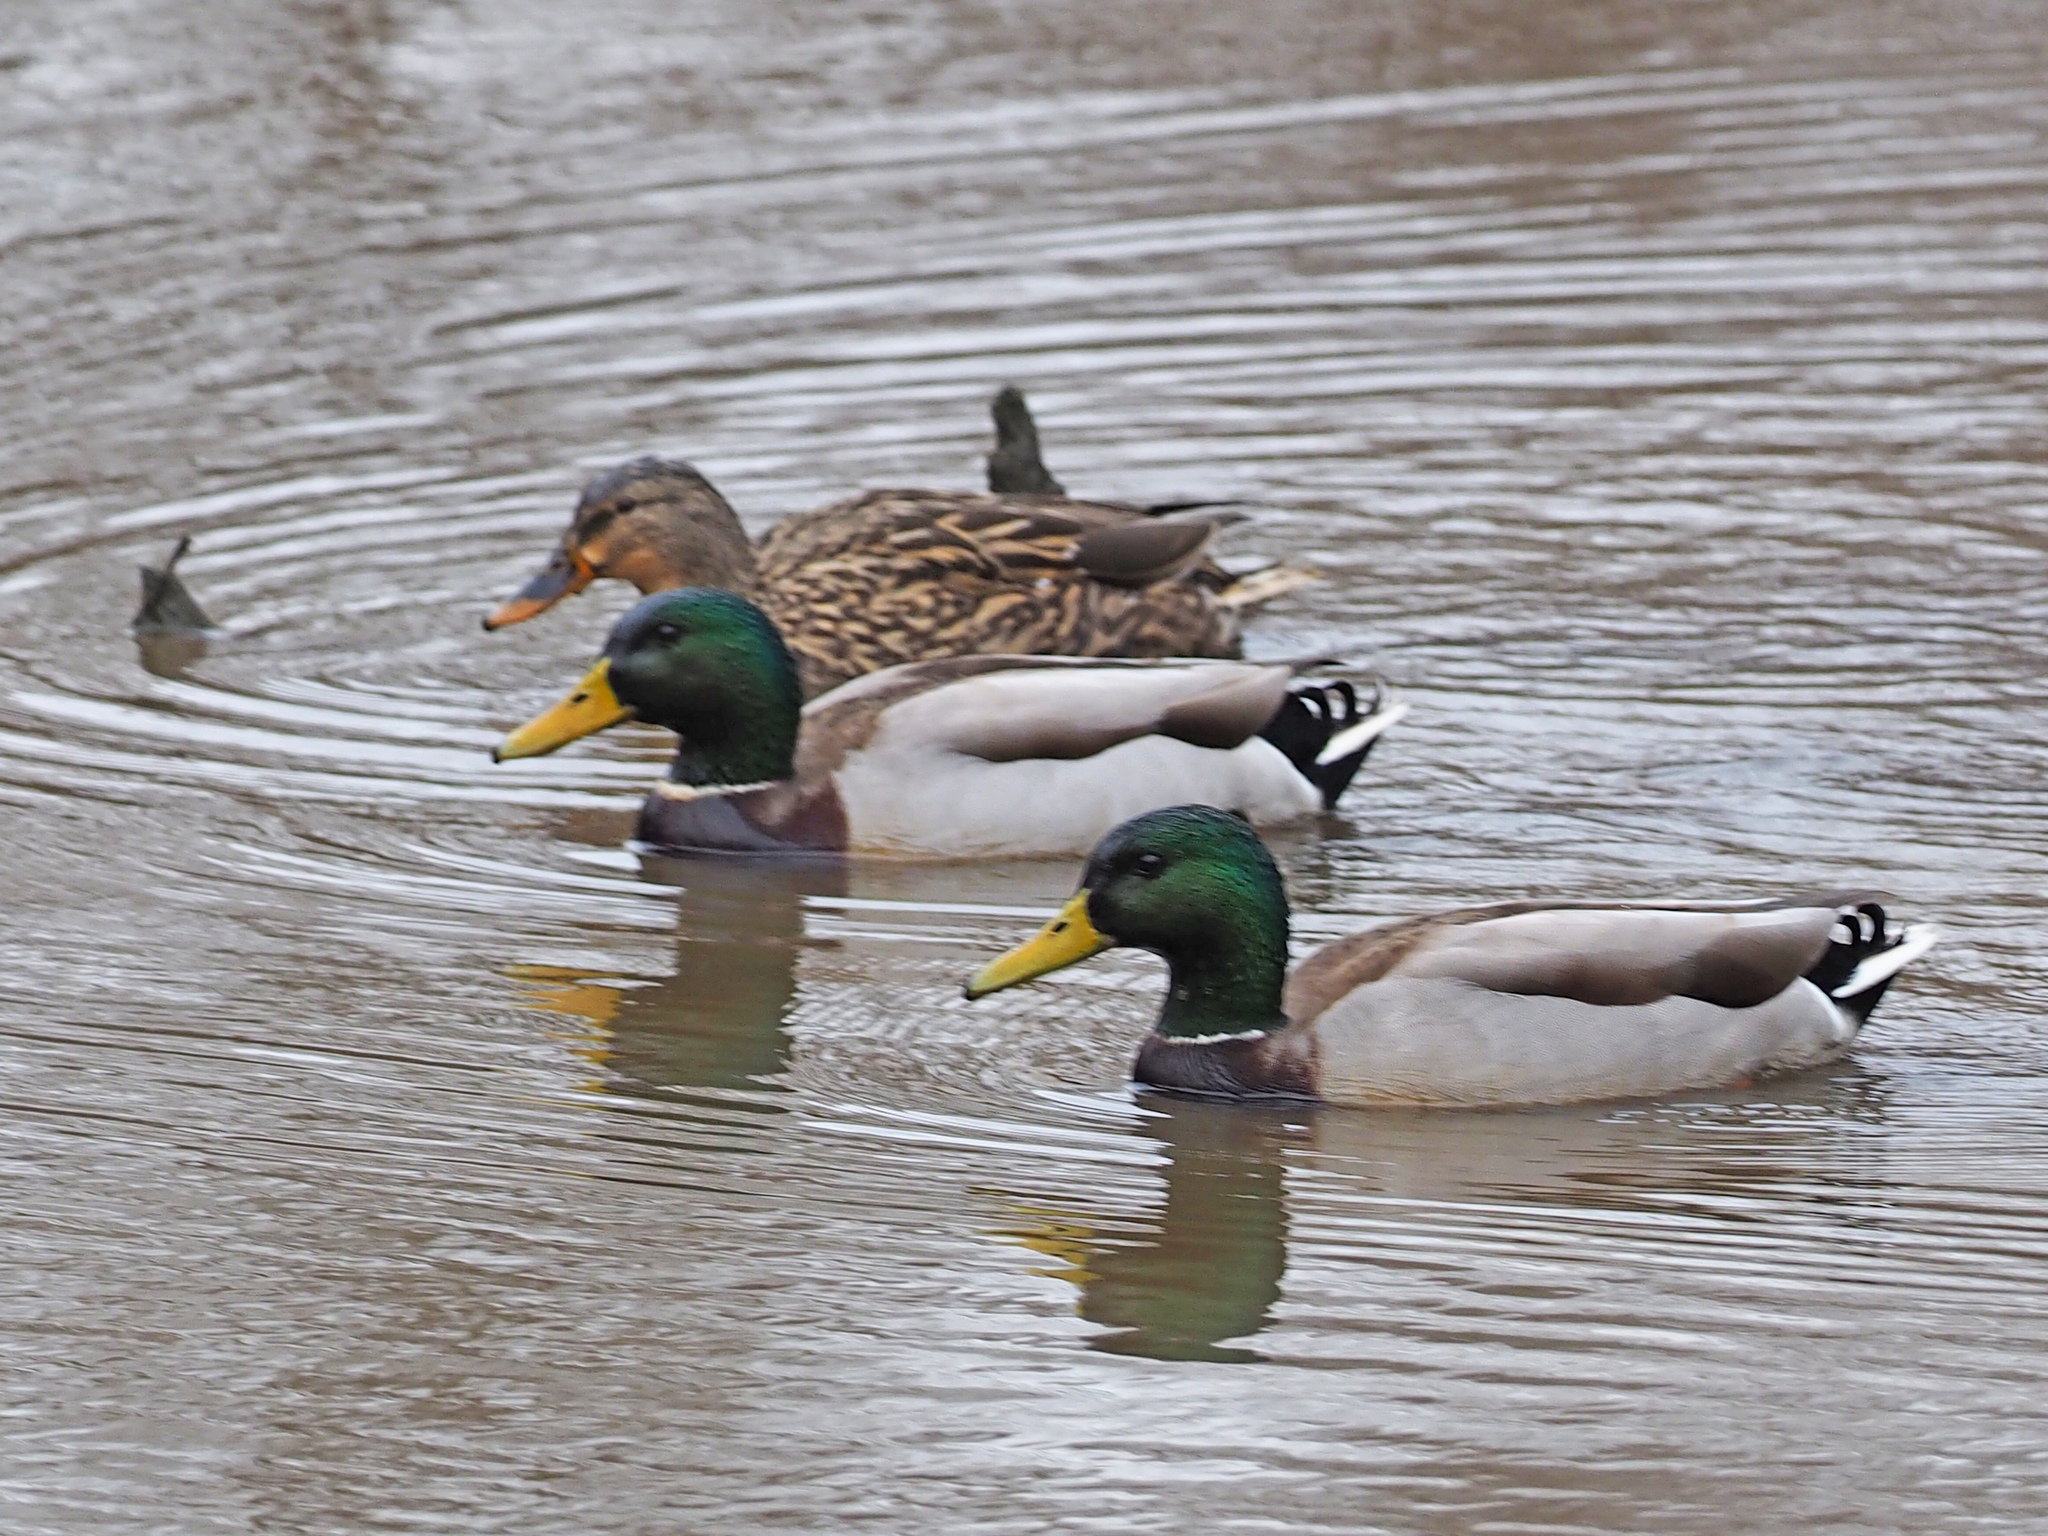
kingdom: Animalia
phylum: Chordata
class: Aves
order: Anseriformes
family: Anatidae
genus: Anas
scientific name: Anas platyrhynchos
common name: Mallard
